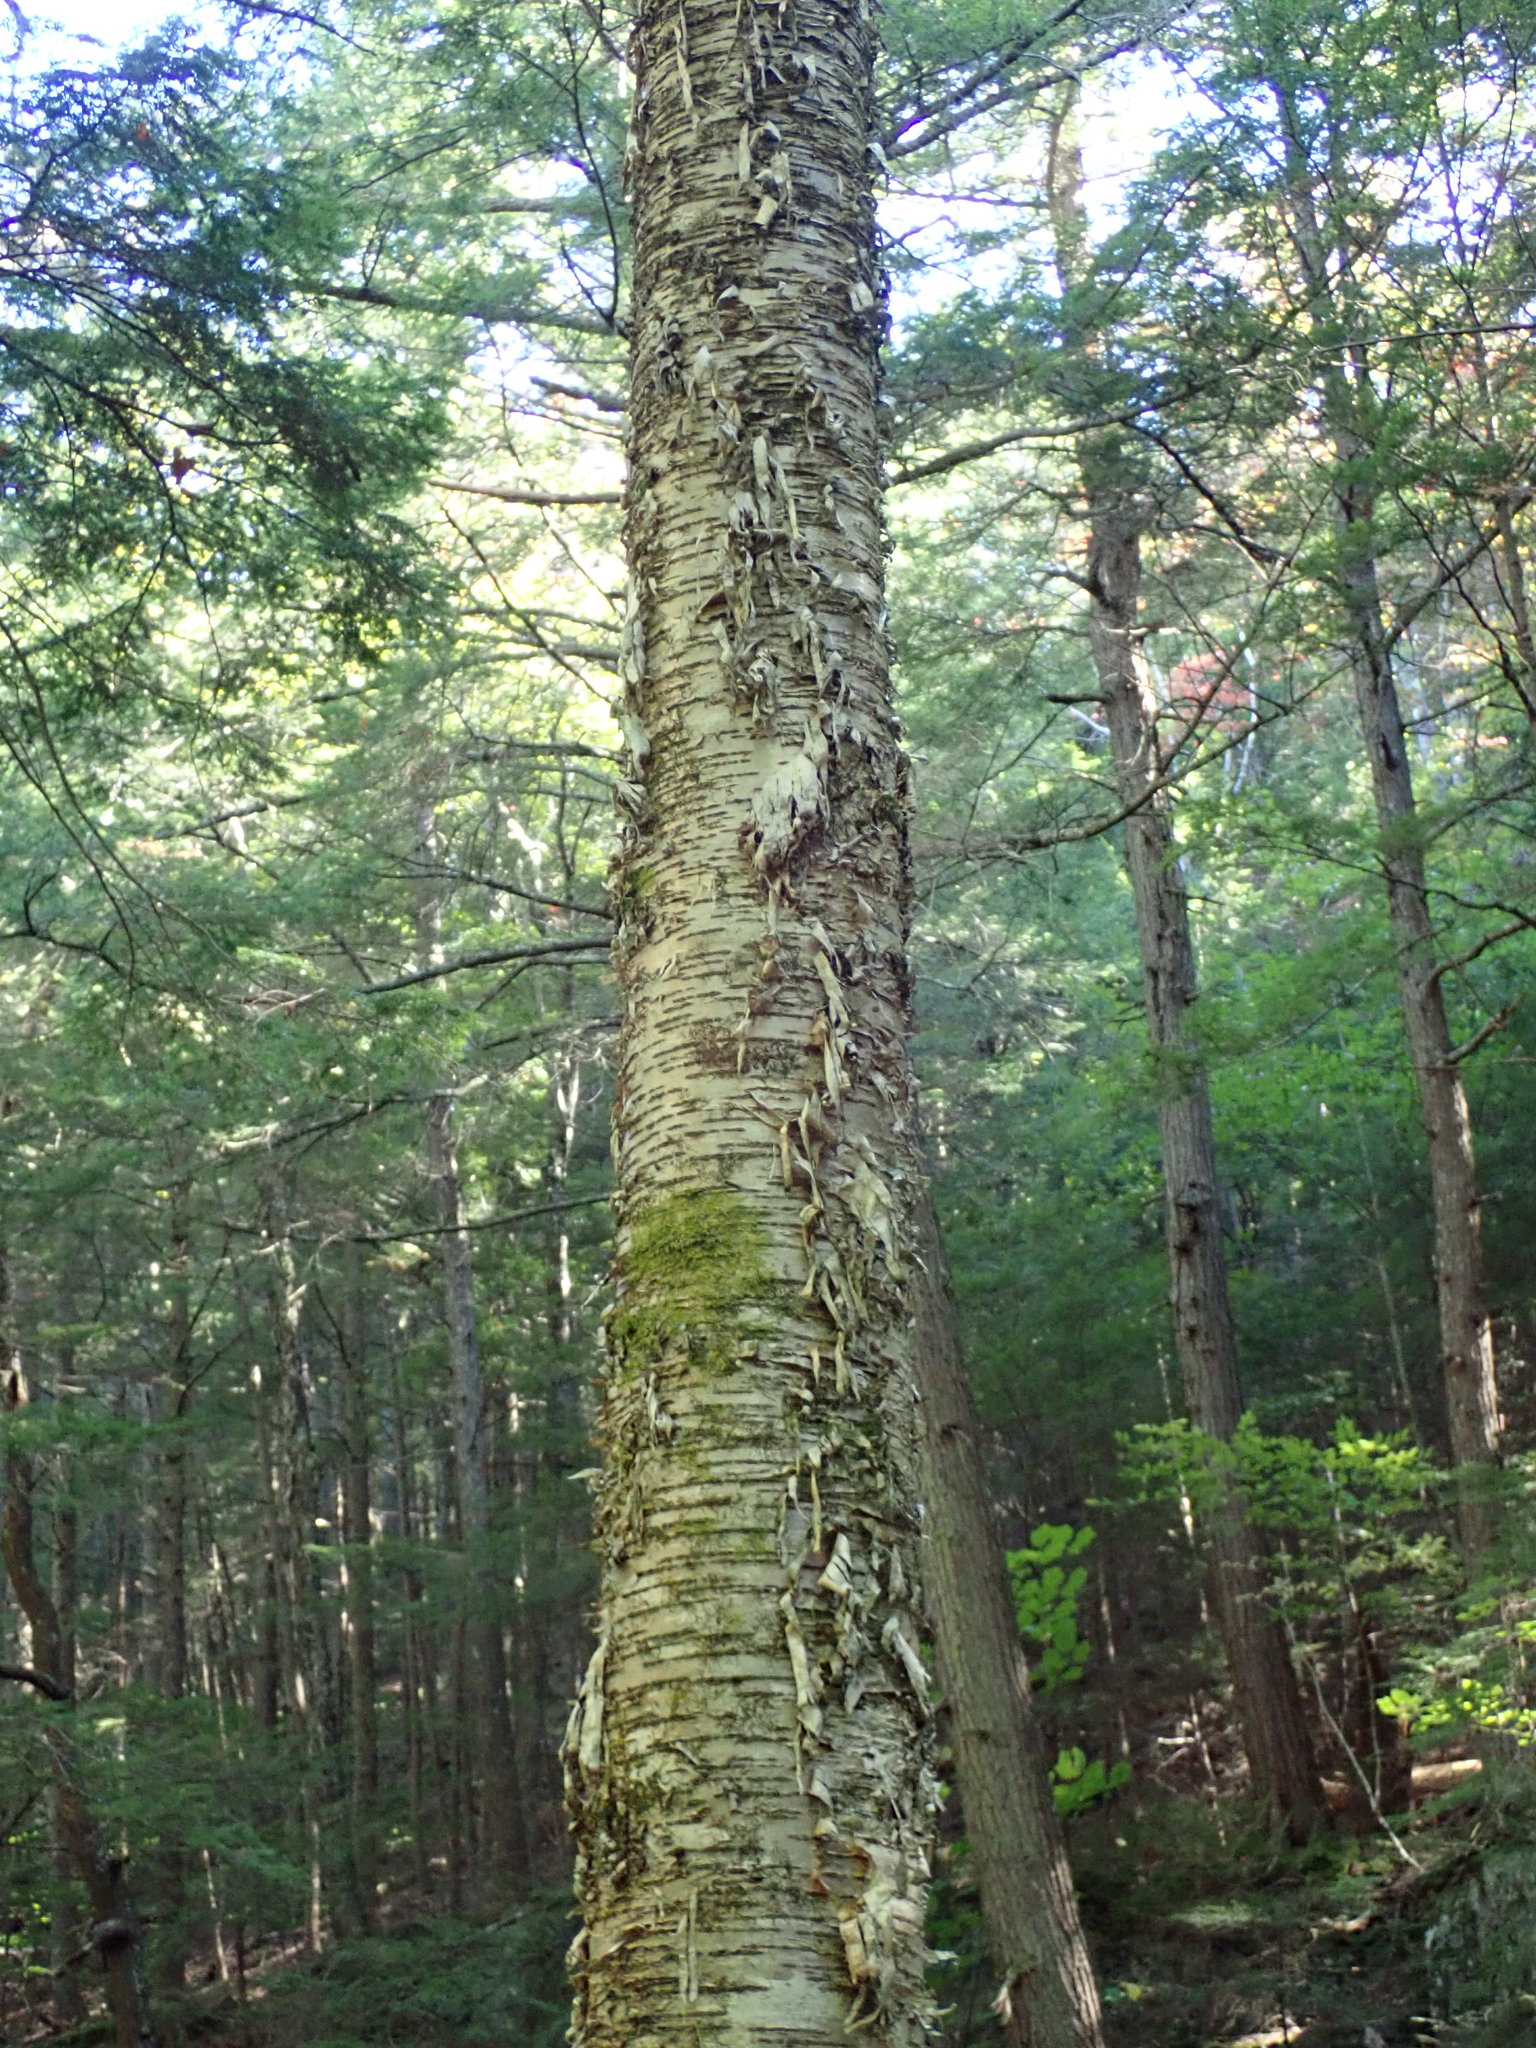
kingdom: Plantae
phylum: Tracheophyta
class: Magnoliopsida
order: Fagales
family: Betulaceae
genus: Betula
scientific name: Betula alleghaniensis
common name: Yellow birch
